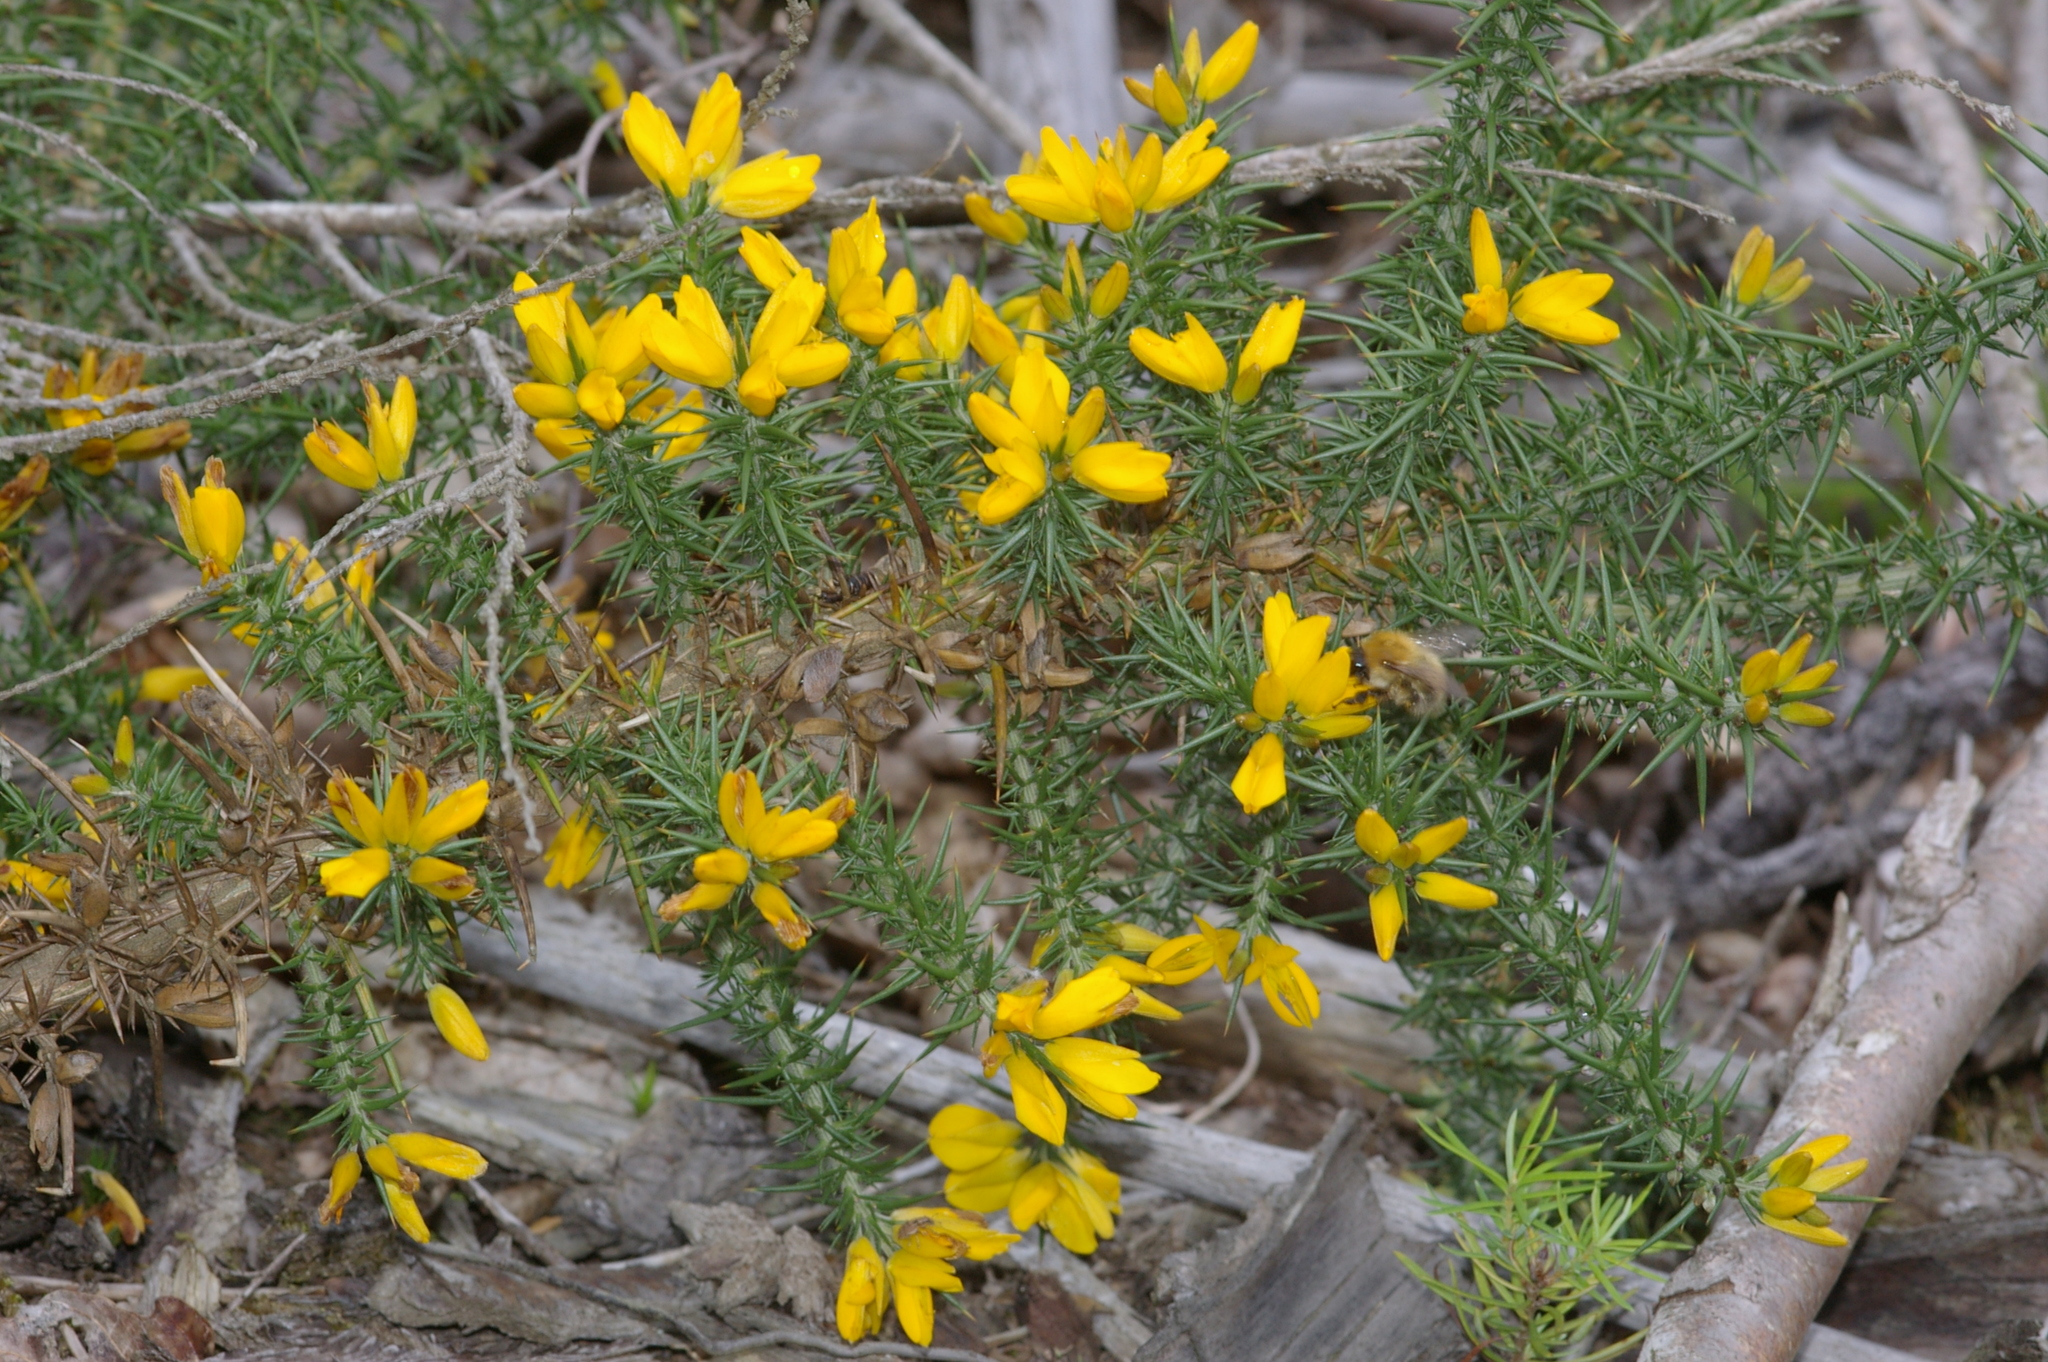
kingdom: Plantae
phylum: Tracheophyta
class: Magnoliopsida
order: Fabales
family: Fabaceae
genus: Ulex
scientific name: Ulex europaeus
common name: Common gorse
